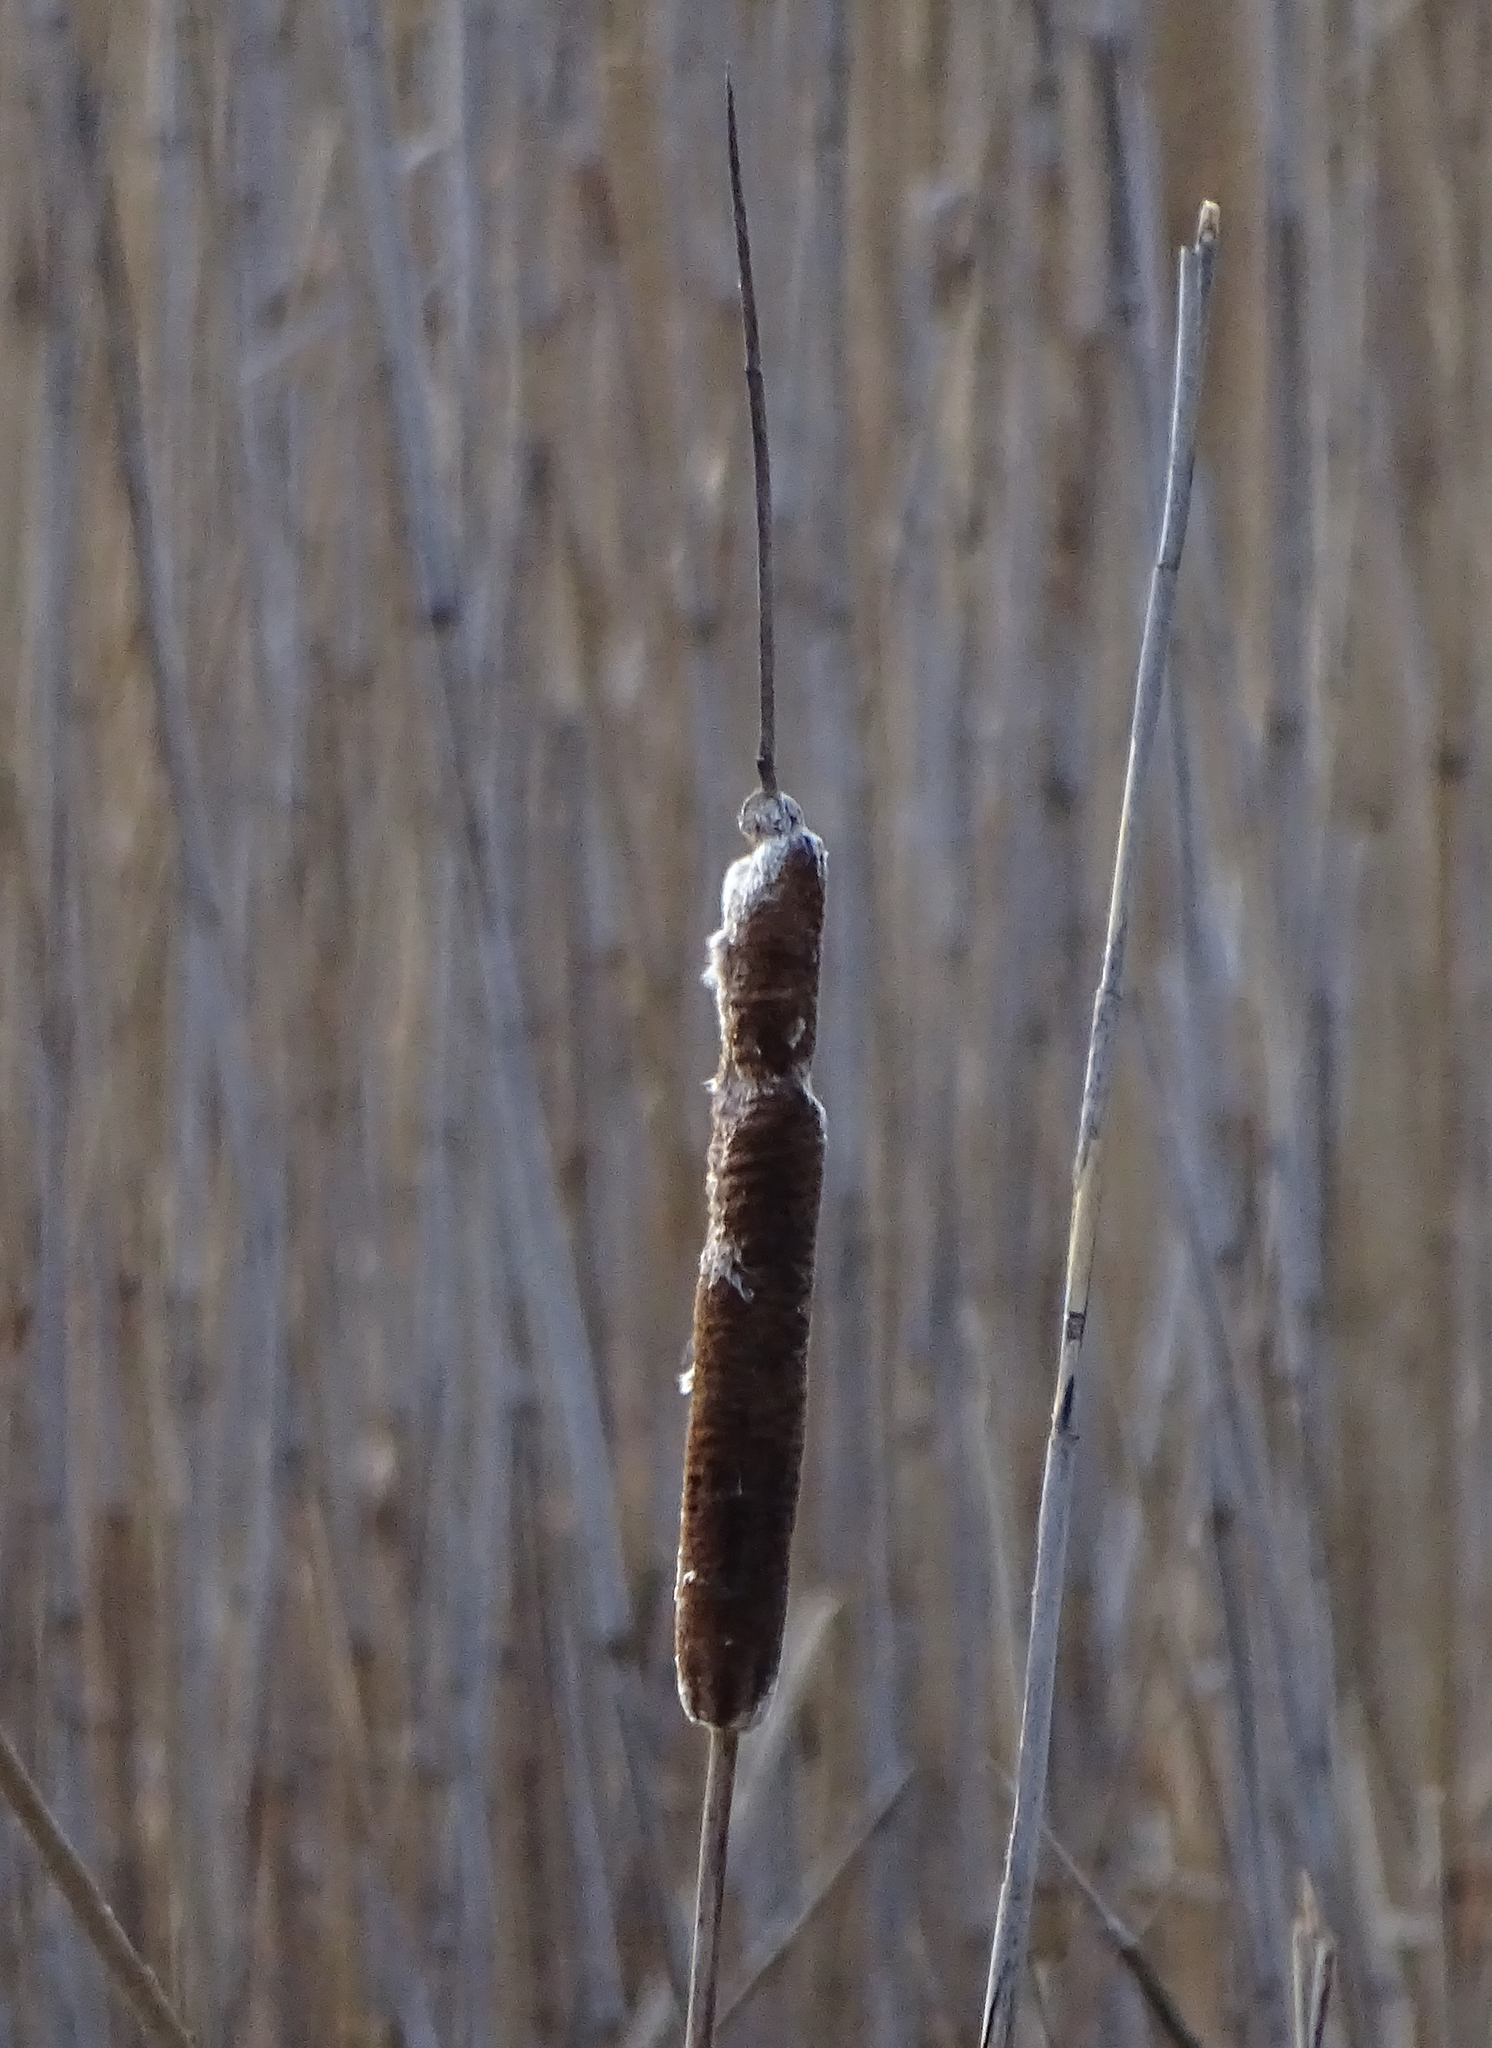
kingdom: Plantae
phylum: Tracheophyta
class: Liliopsida
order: Poales
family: Typhaceae
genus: Typha
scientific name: Typha latifolia
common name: Broadleaf cattail
